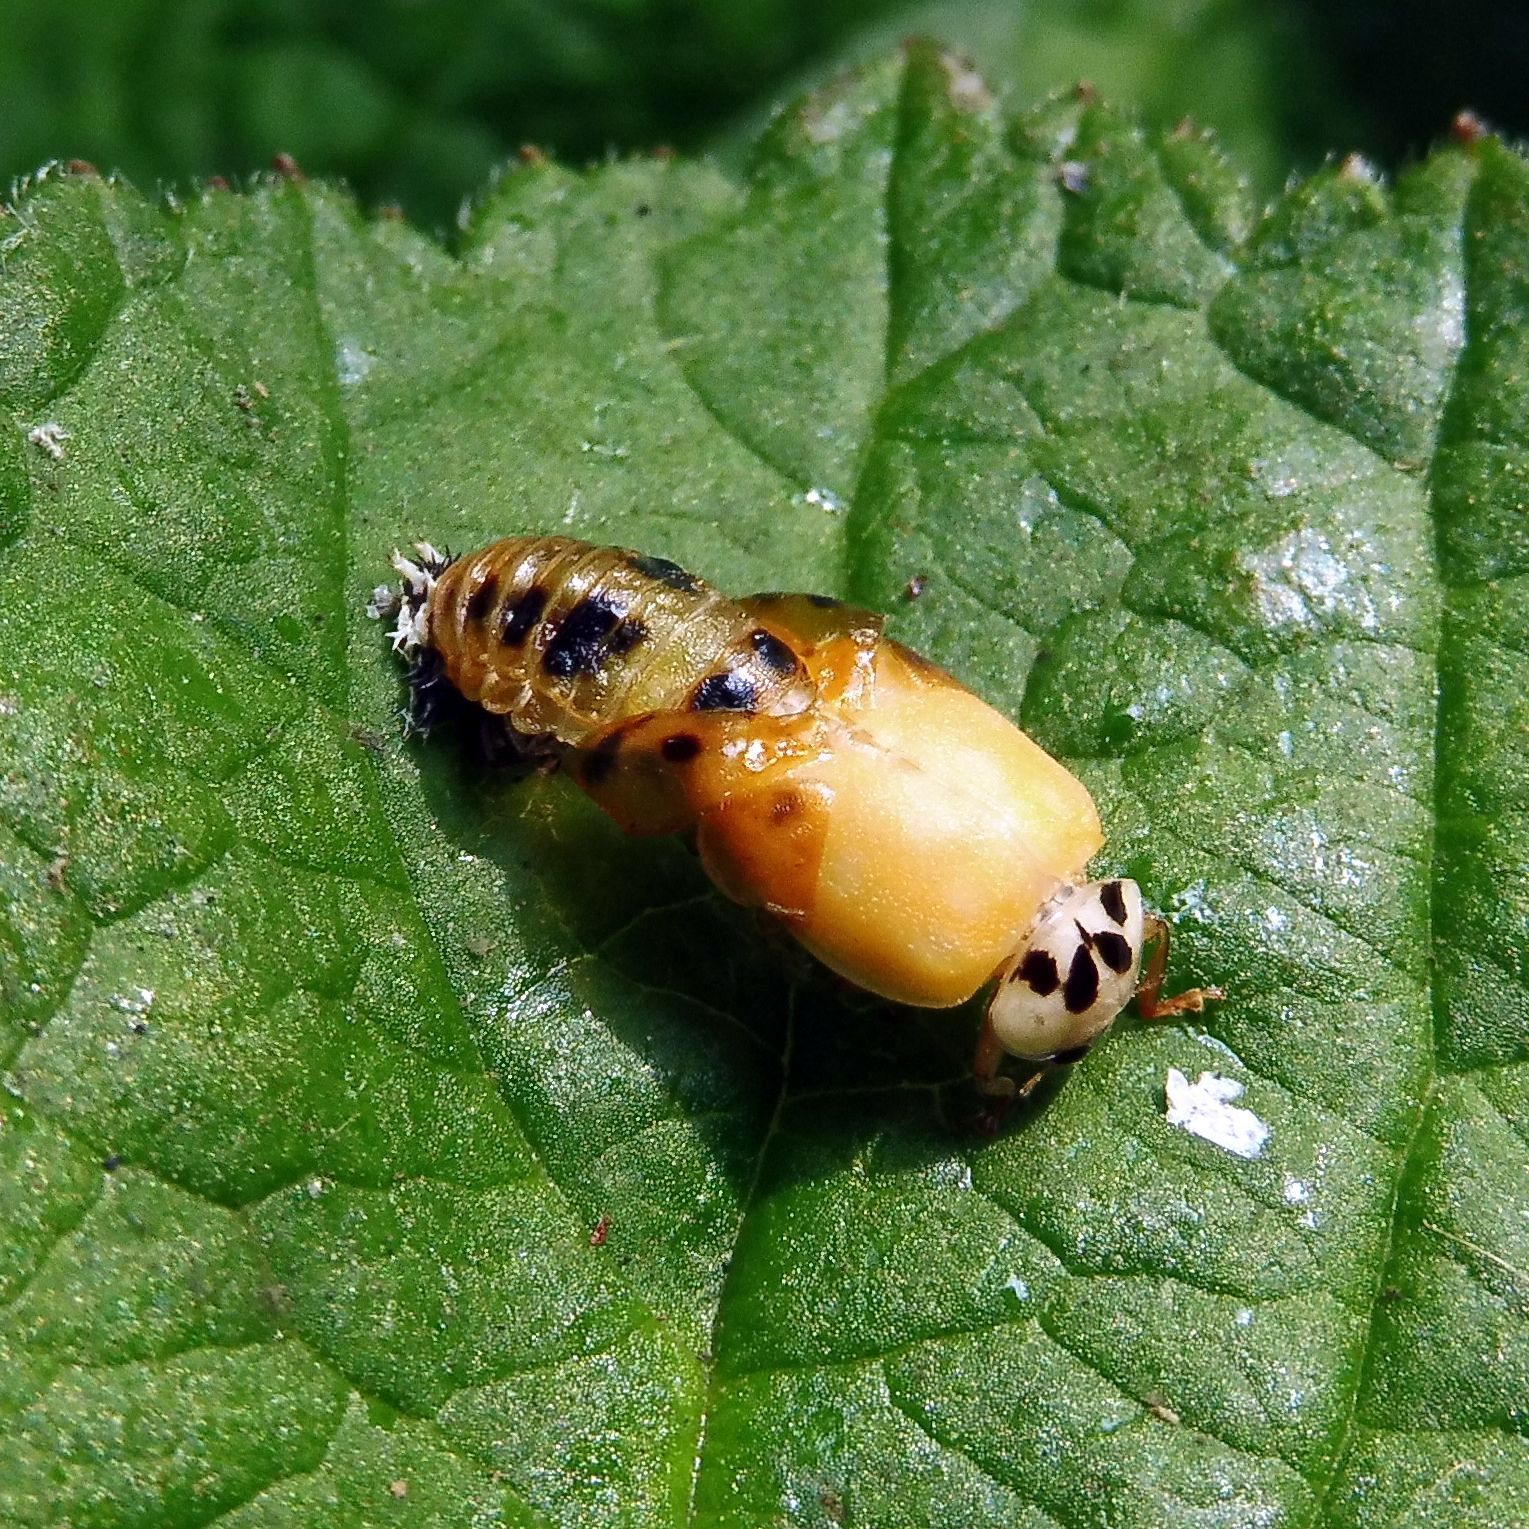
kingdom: Animalia
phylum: Arthropoda
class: Insecta
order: Coleoptera
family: Coccinellidae
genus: Harmonia
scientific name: Harmonia axyridis
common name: Harlequin ladybird
